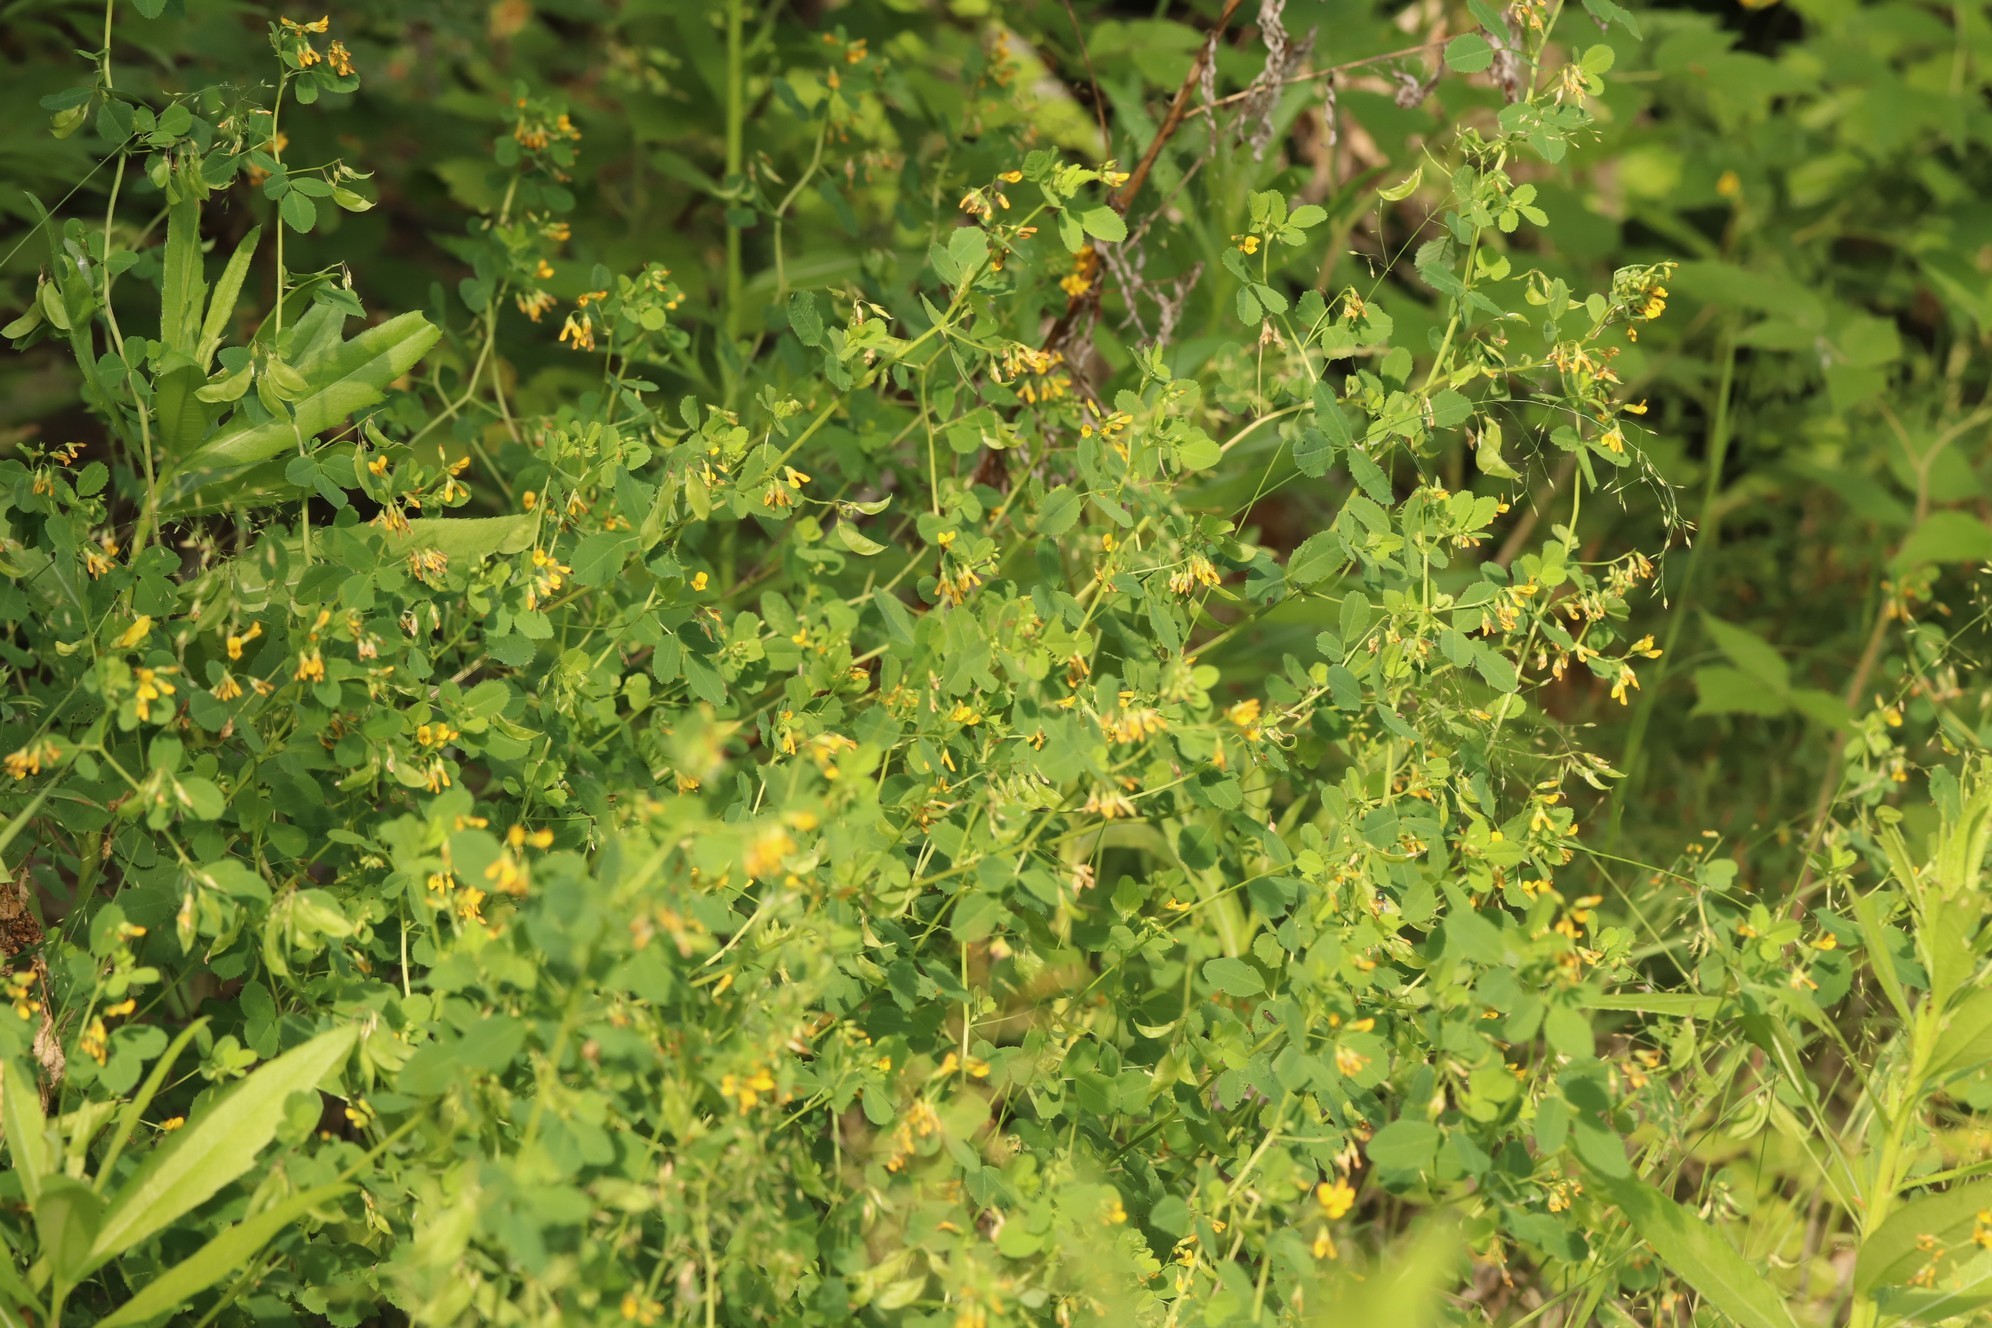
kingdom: Plantae
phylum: Tracheophyta
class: Magnoliopsida
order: Fabales
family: Fabaceae
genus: Medicago
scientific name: Medicago platycarpos
